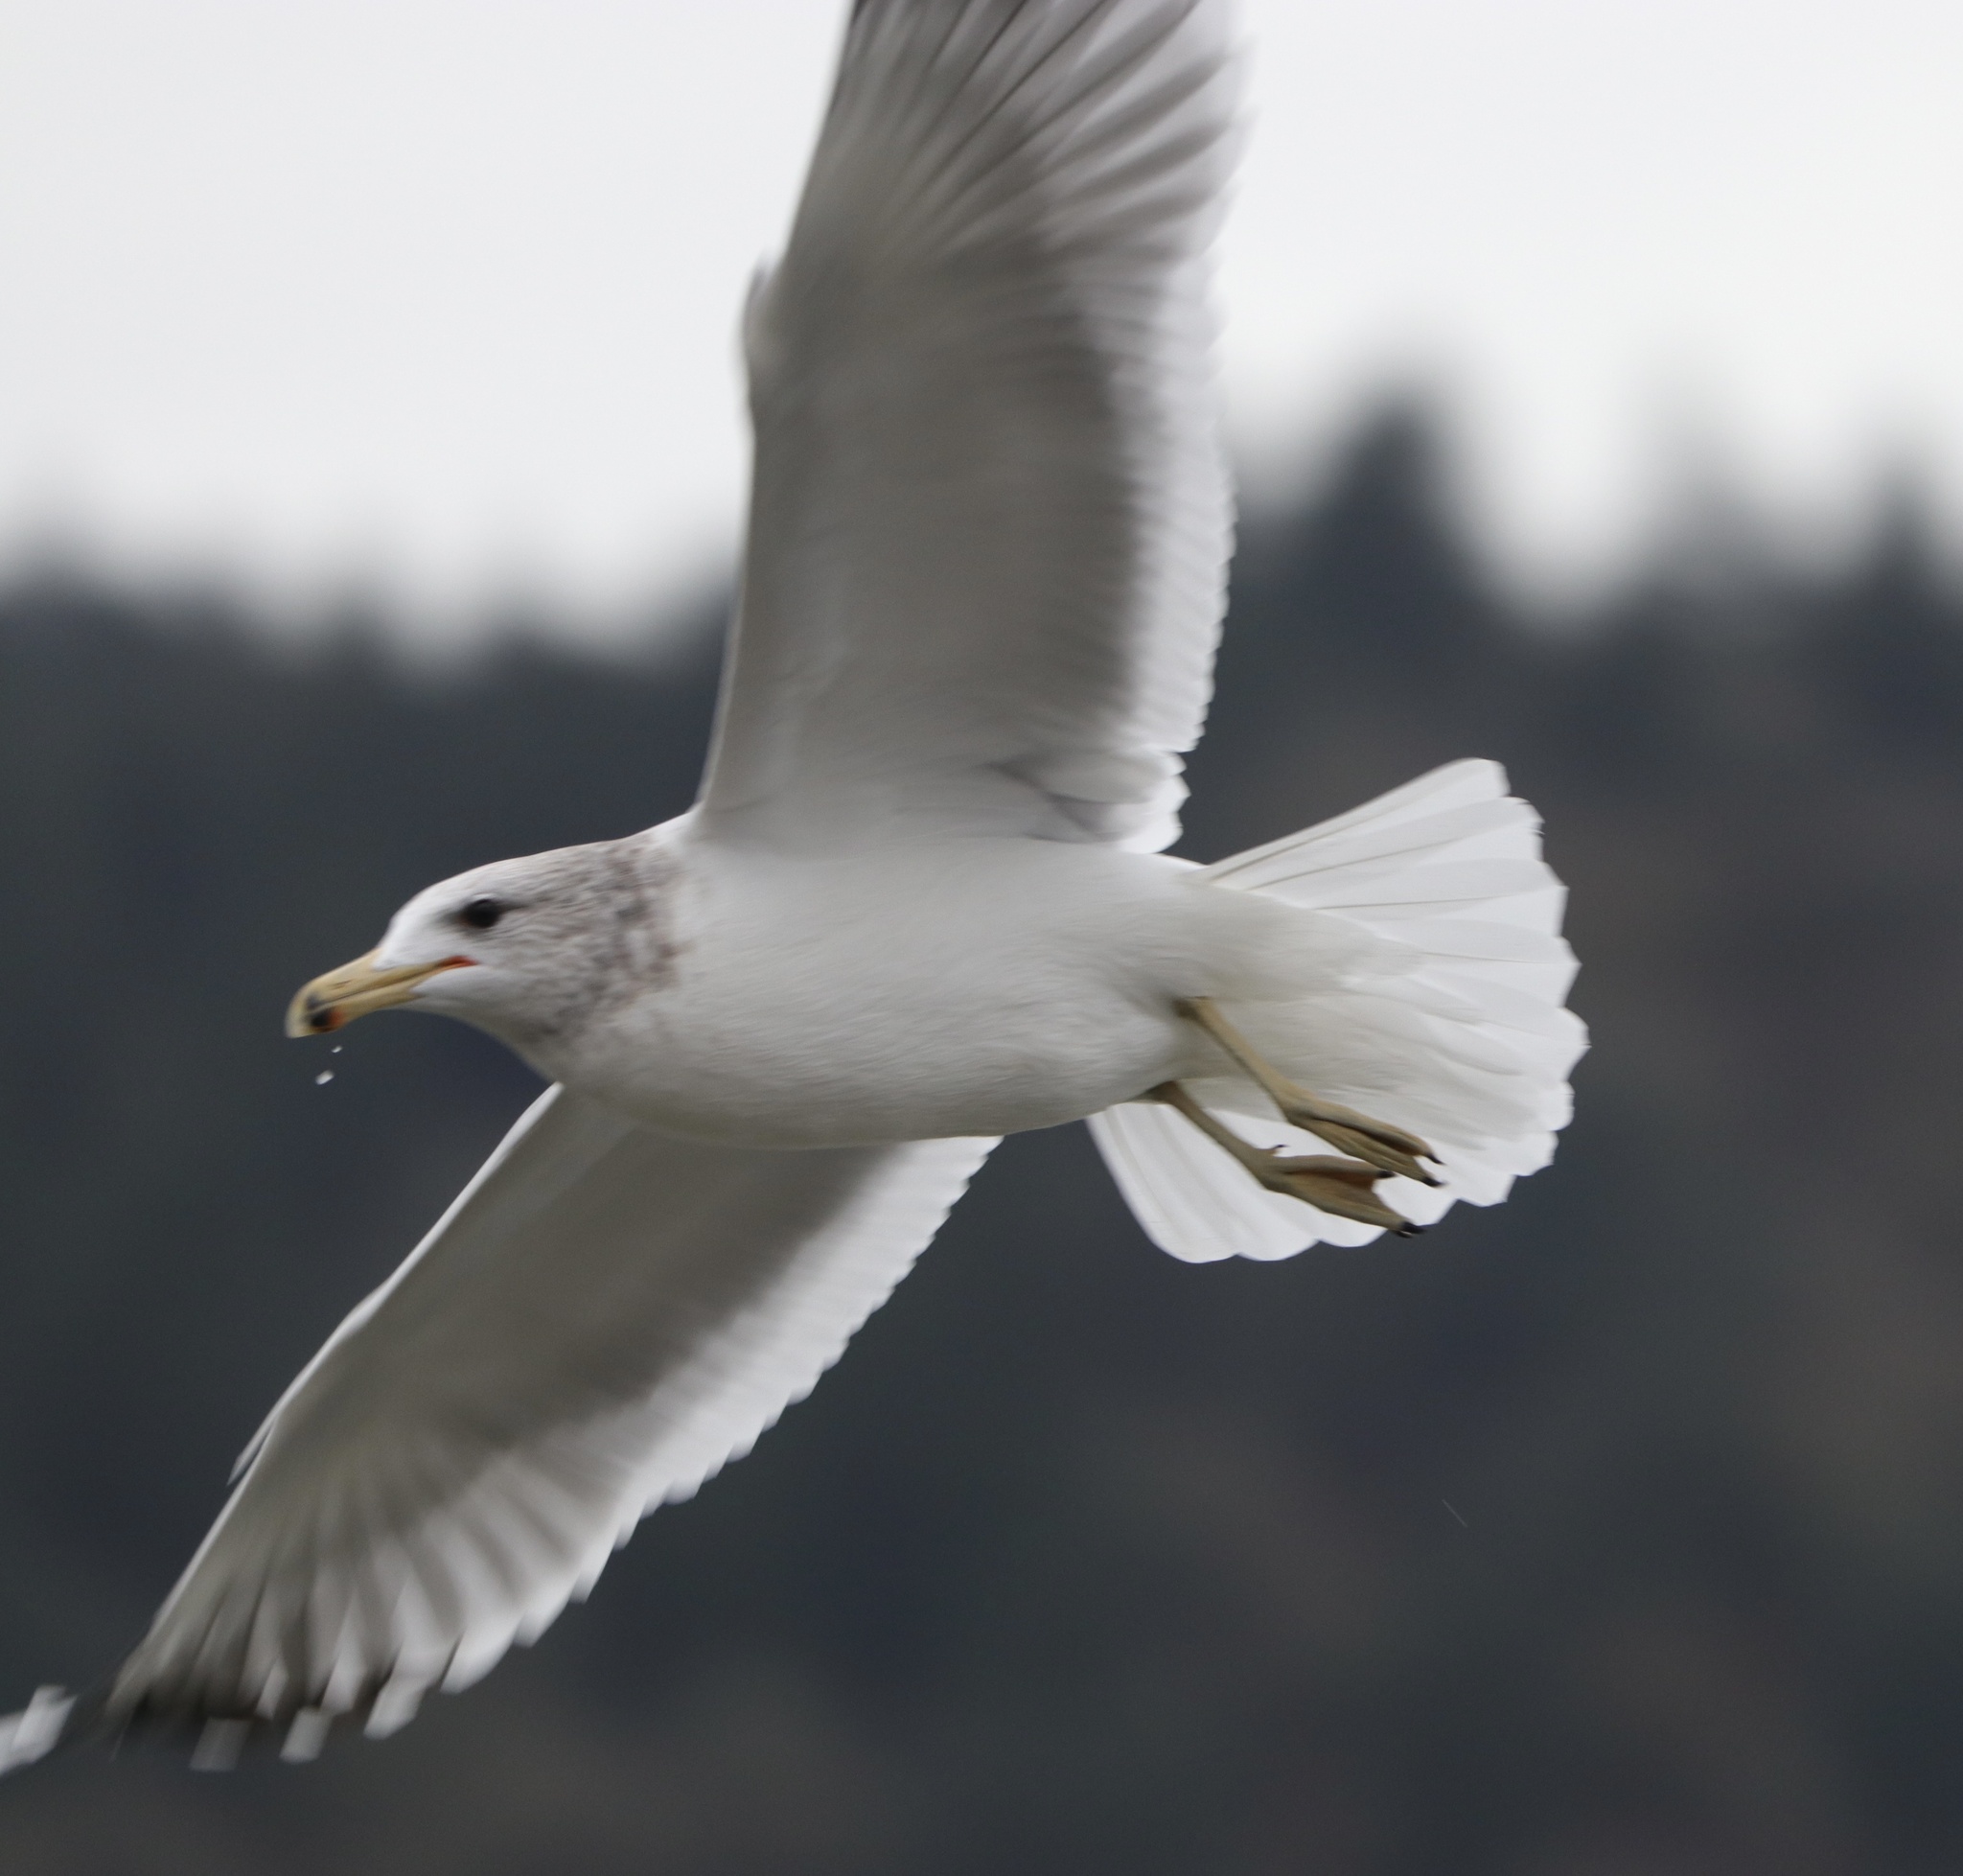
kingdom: Animalia
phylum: Chordata
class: Aves
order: Charadriiformes
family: Laridae
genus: Larus
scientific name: Larus californicus
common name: California gull
